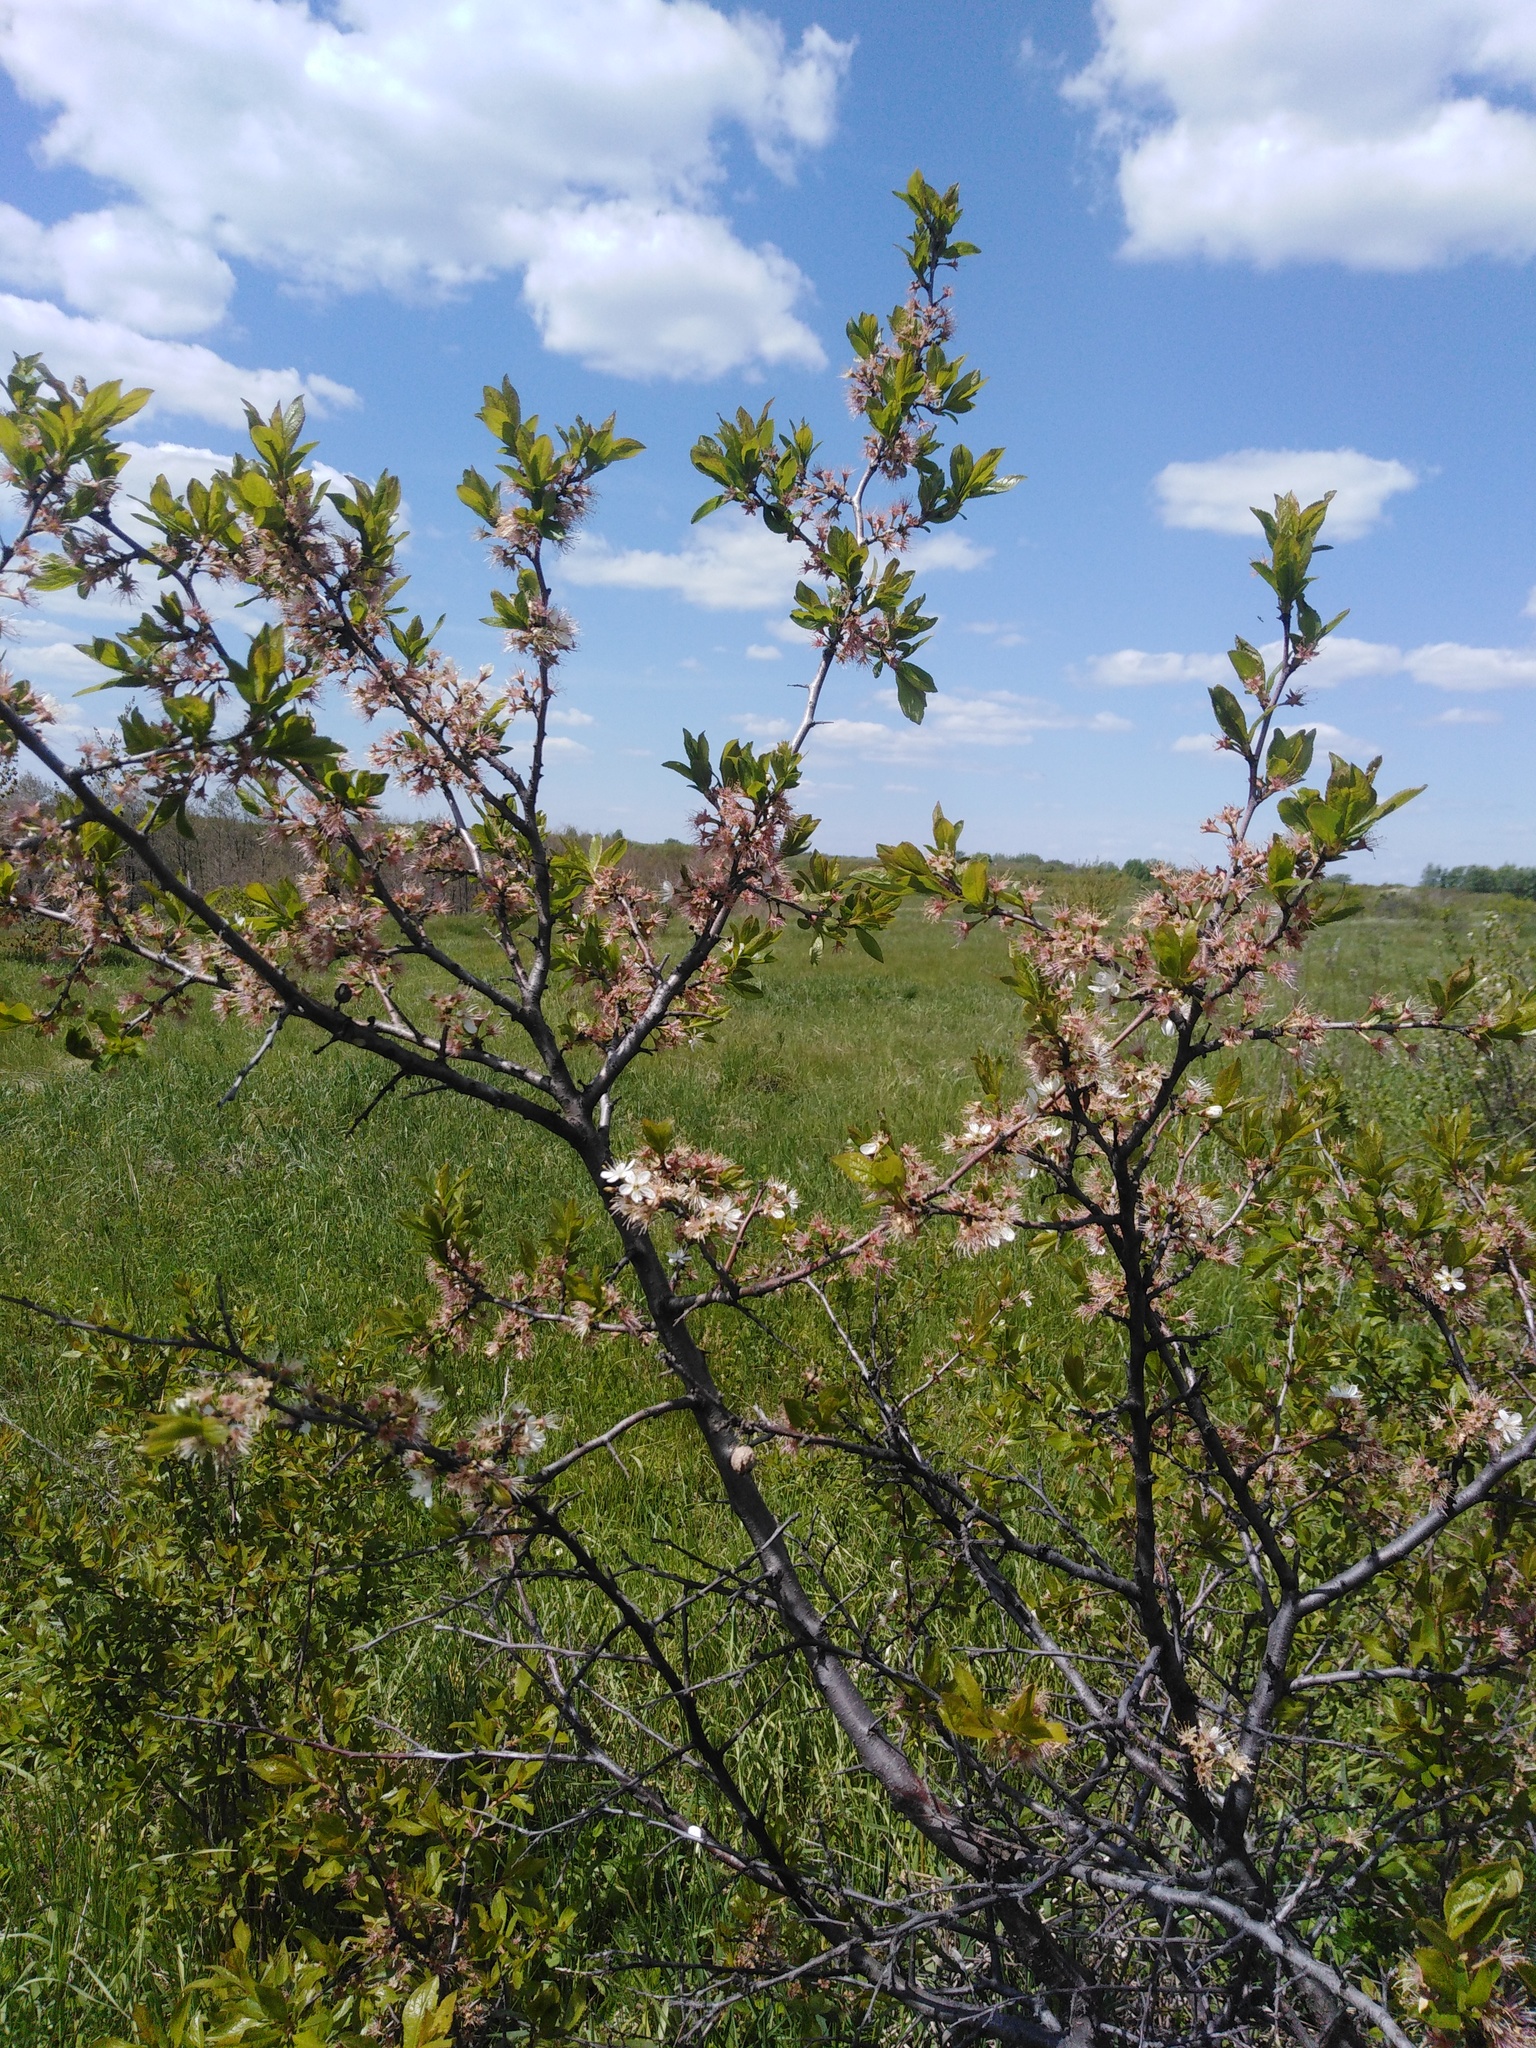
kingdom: Plantae
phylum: Tracheophyta
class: Magnoliopsida
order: Rosales
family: Rosaceae
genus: Prunus
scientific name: Prunus spinosa
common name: Blackthorn
